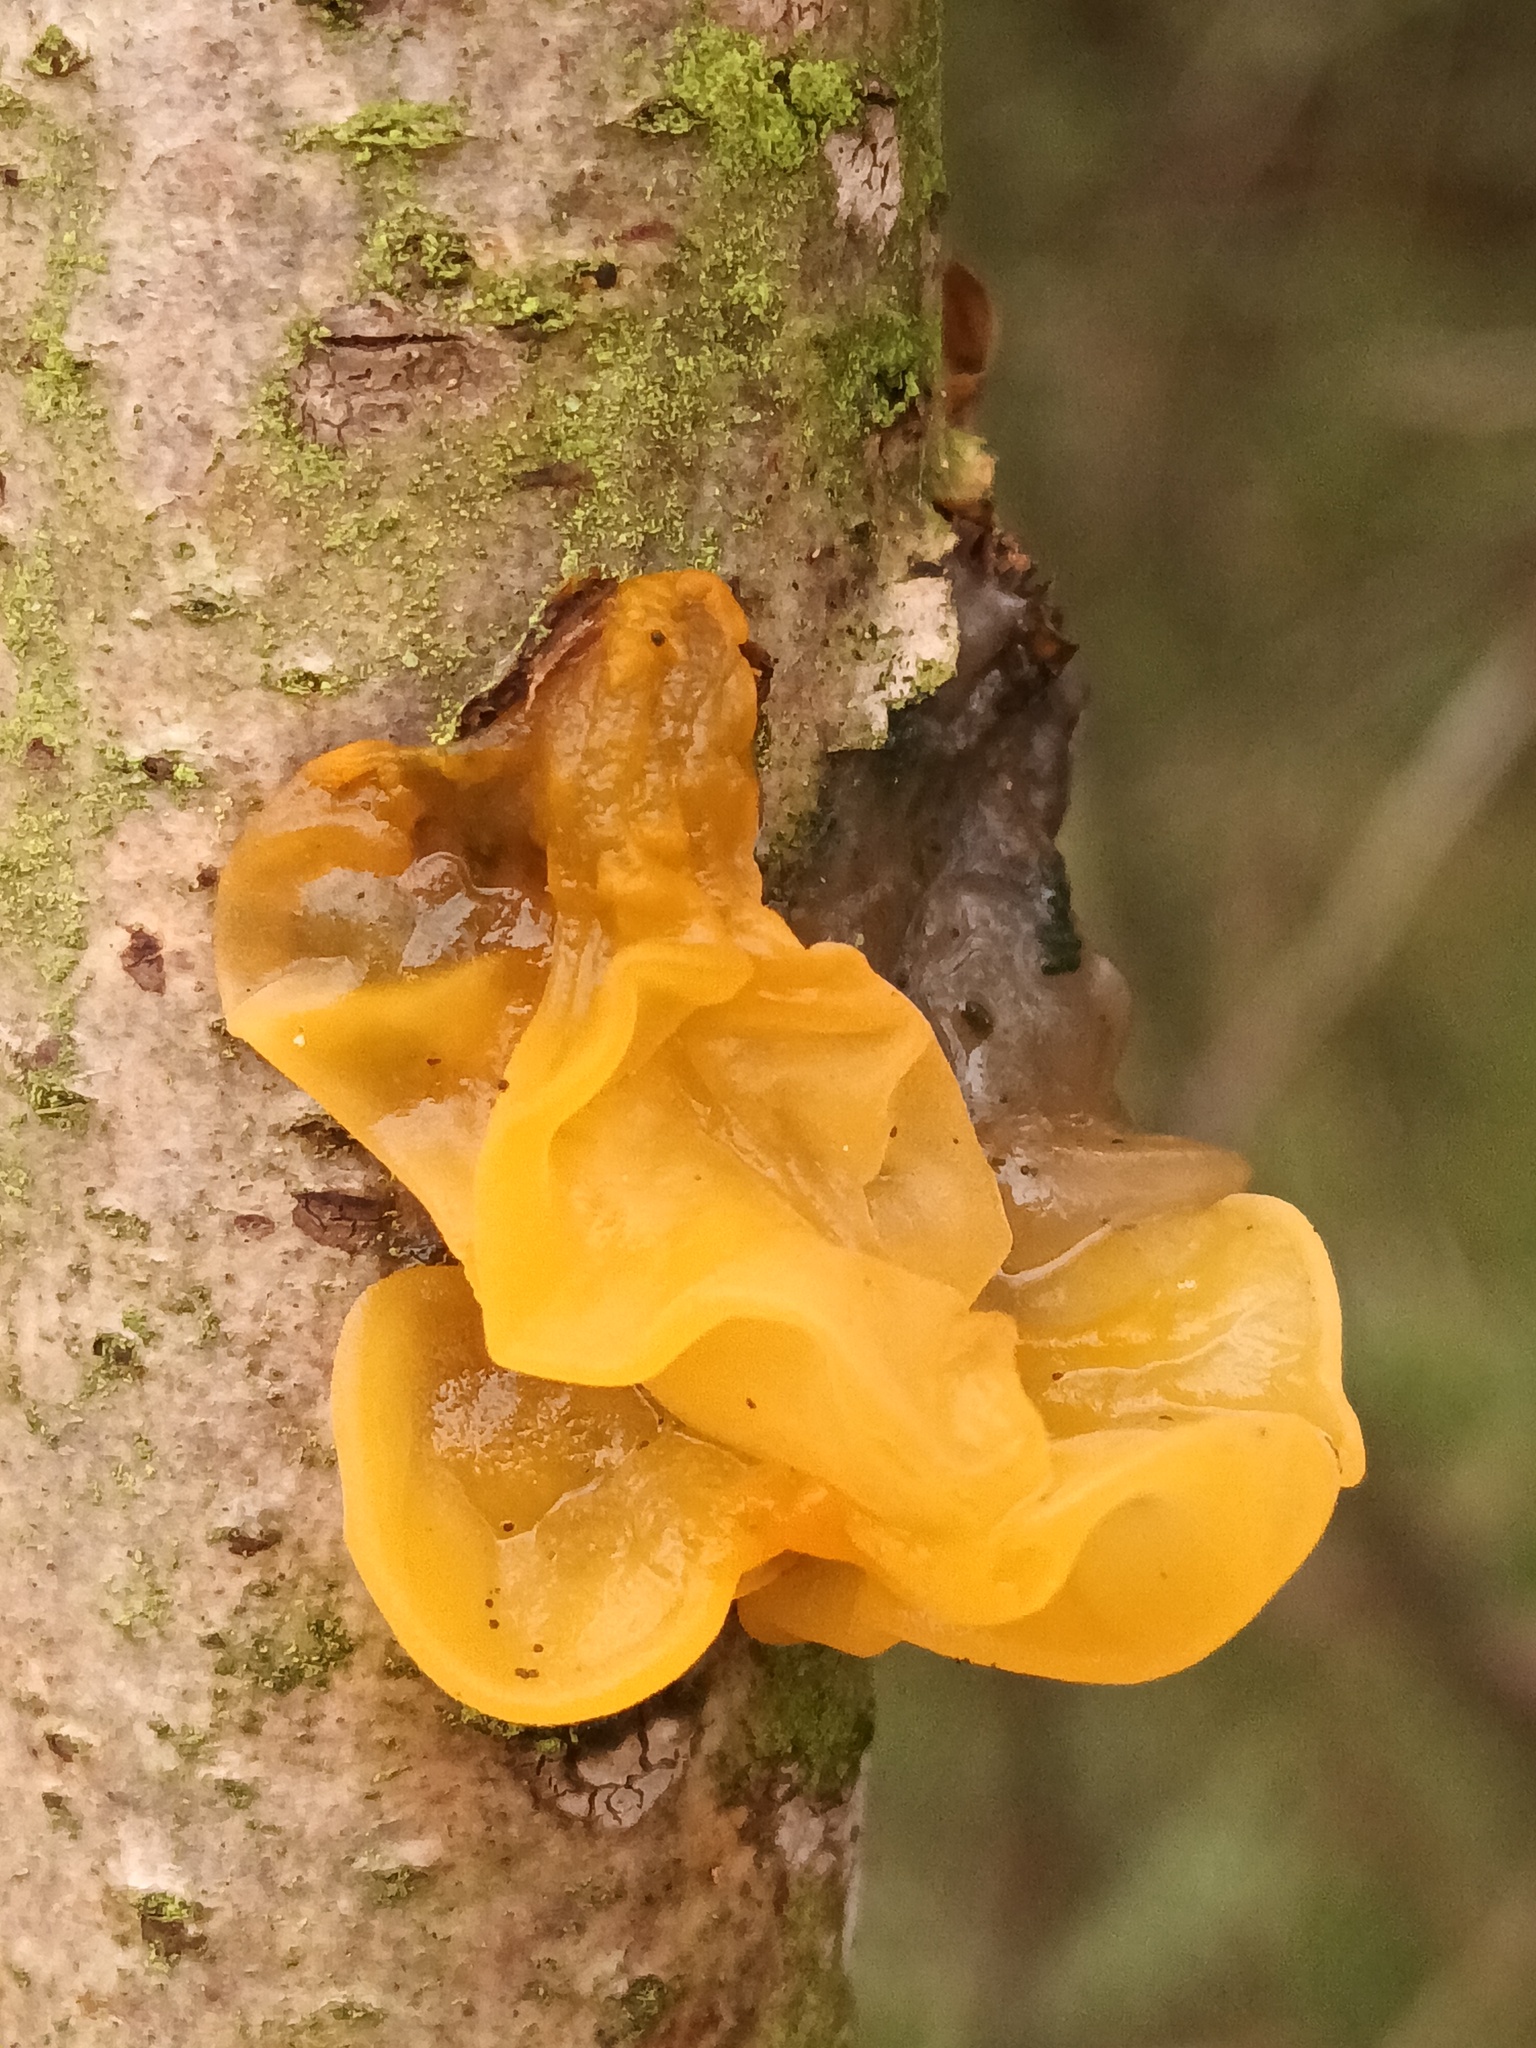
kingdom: Fungi
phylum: Basidiomycota
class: Tremellomycetes
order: Tremellales
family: Tremellaceae
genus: Tremella
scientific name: Tremella mesenterica
